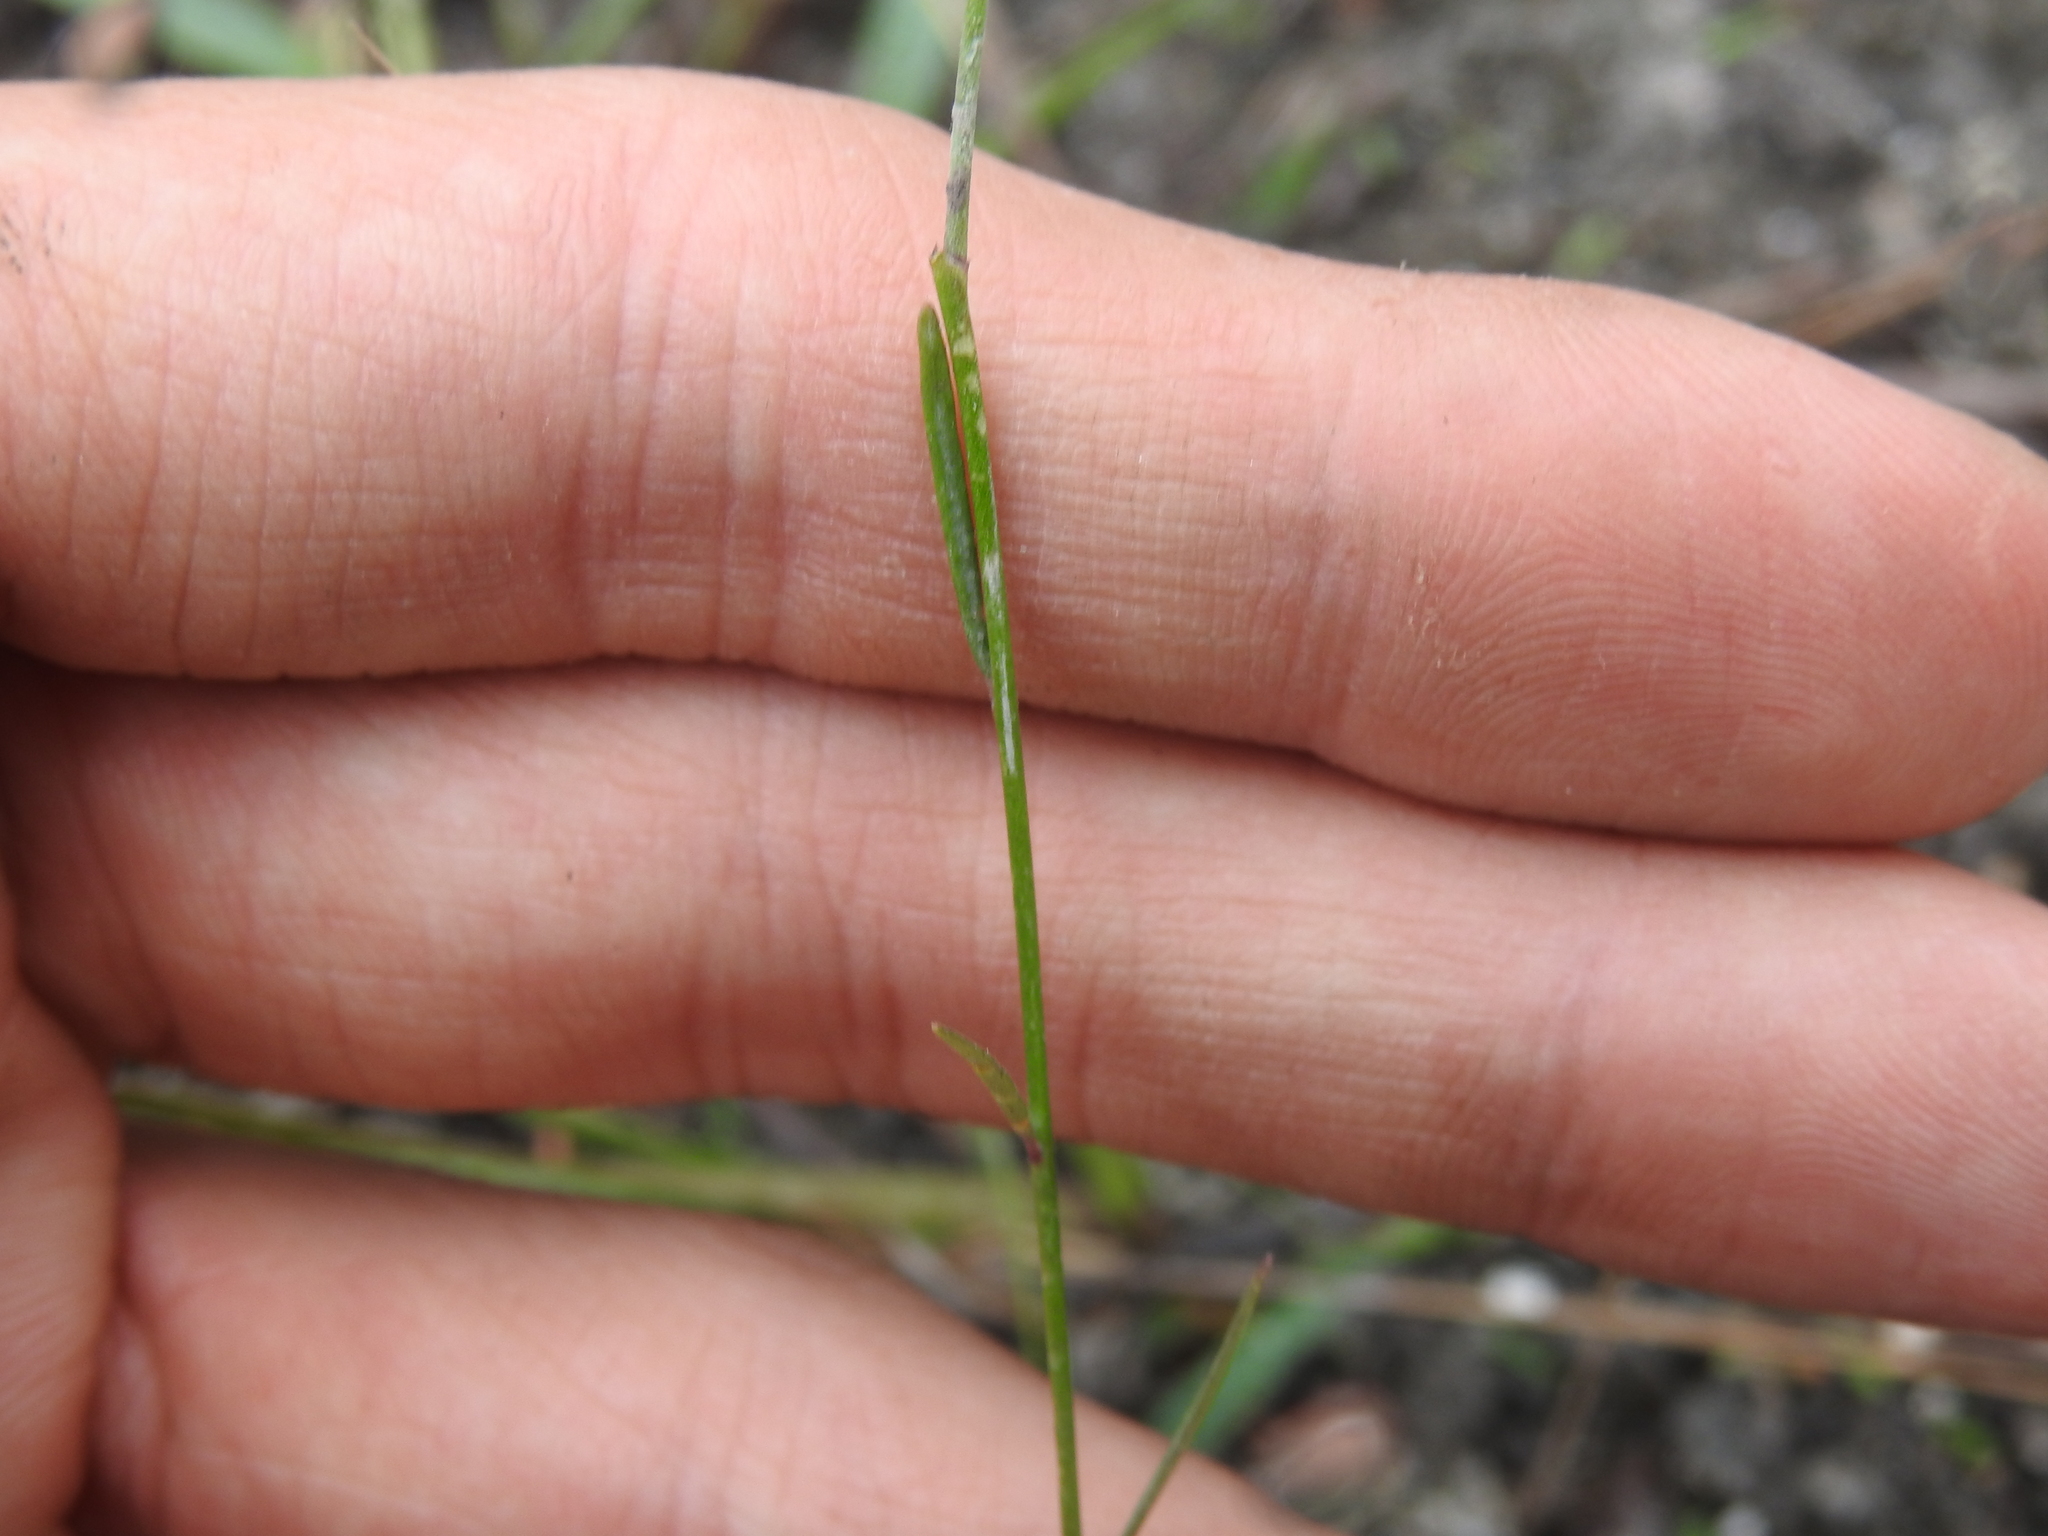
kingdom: Plantae
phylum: Tracheophyta
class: Magnoliopsida
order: Fabales
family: Polygalaceae
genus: Asemeia
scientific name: Asemeia grandiflora
